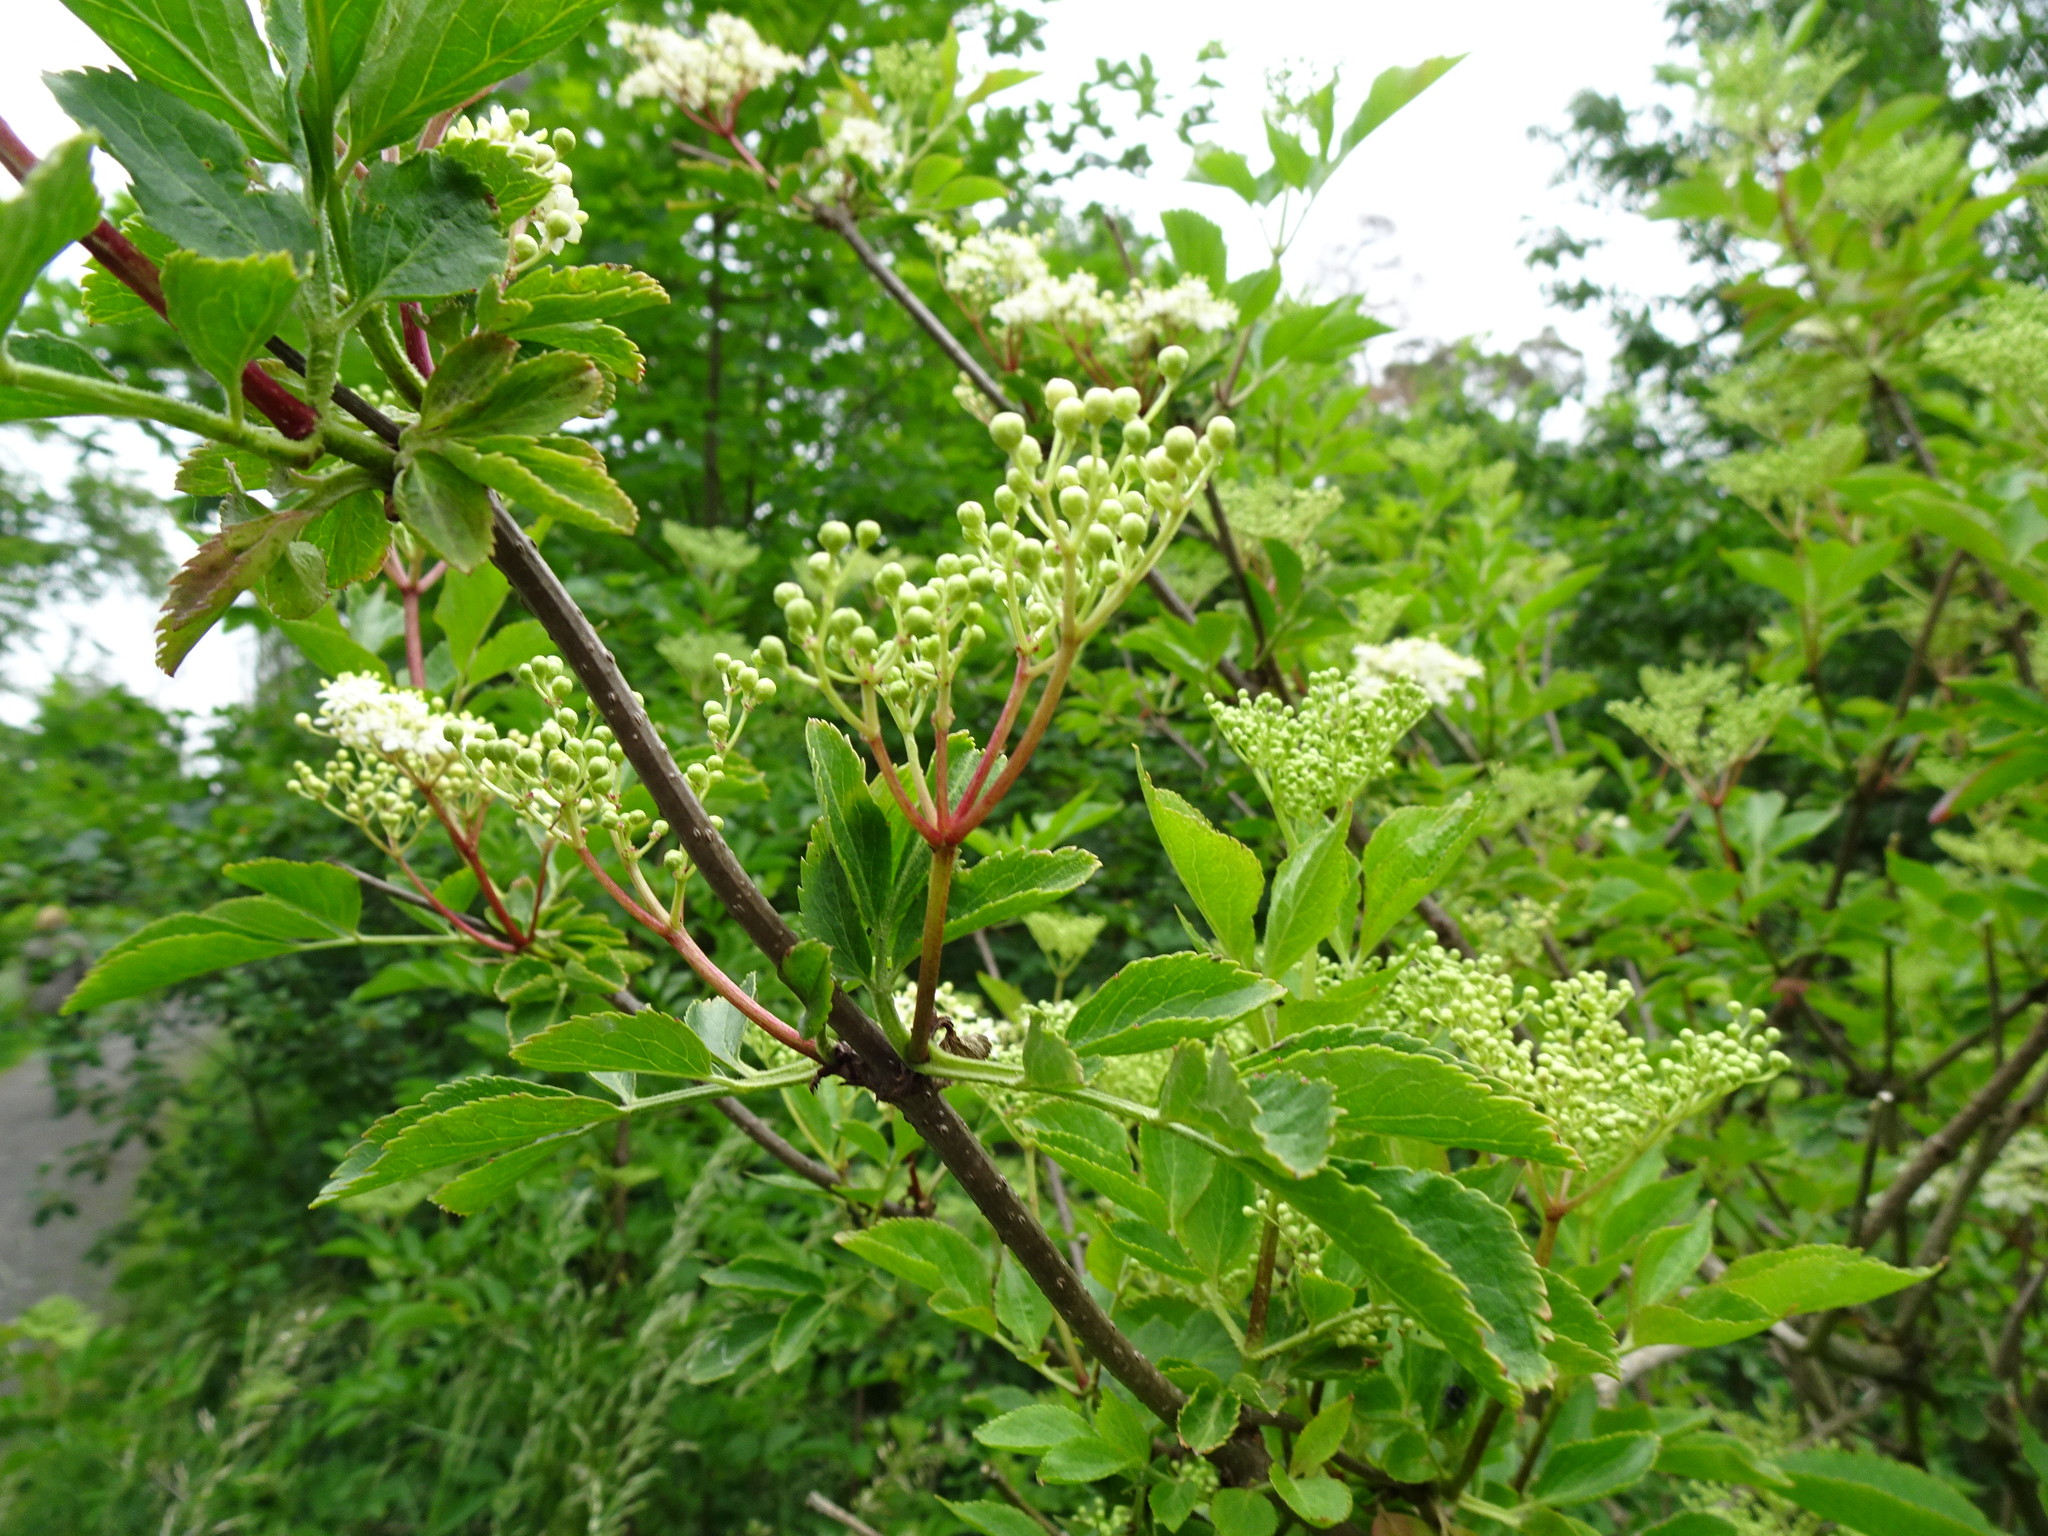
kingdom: Plantae
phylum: Tracheophyta
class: Magnoliopsida
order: Dipsacales
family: Viburnaceae
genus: Sambucus
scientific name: Sambucus nigra
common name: Elder
